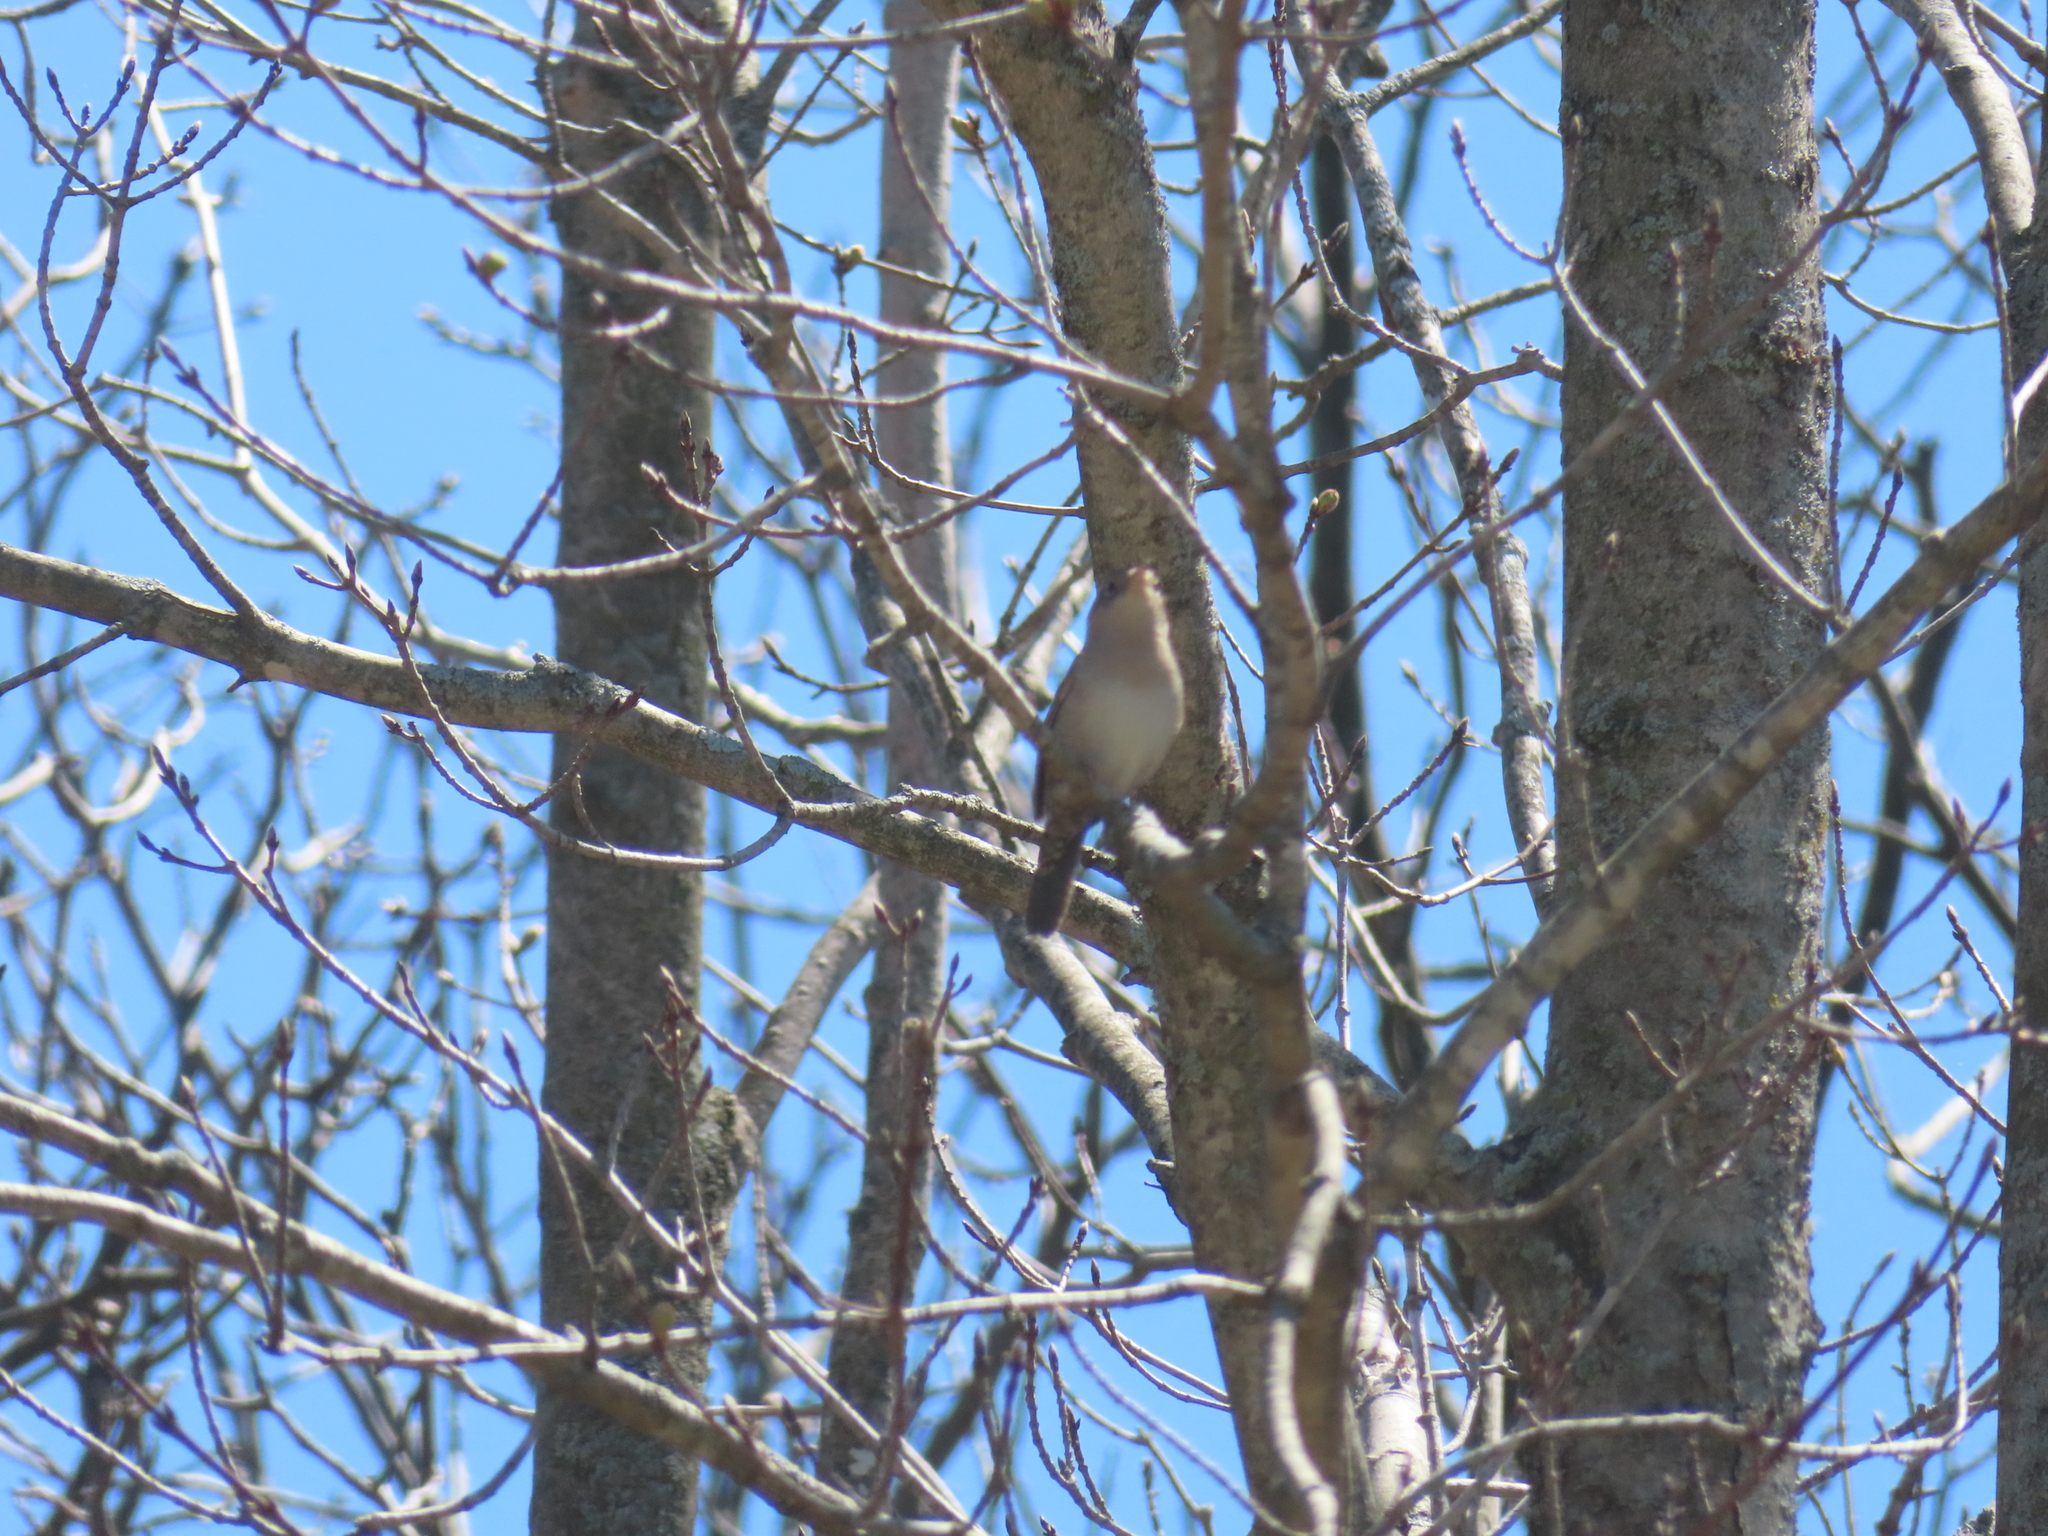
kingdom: Animalia
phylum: Chordata
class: Aves
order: Passeriformes
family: Troglodytidae
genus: Troglodytes
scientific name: Troglodytes aedon
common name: House wren
